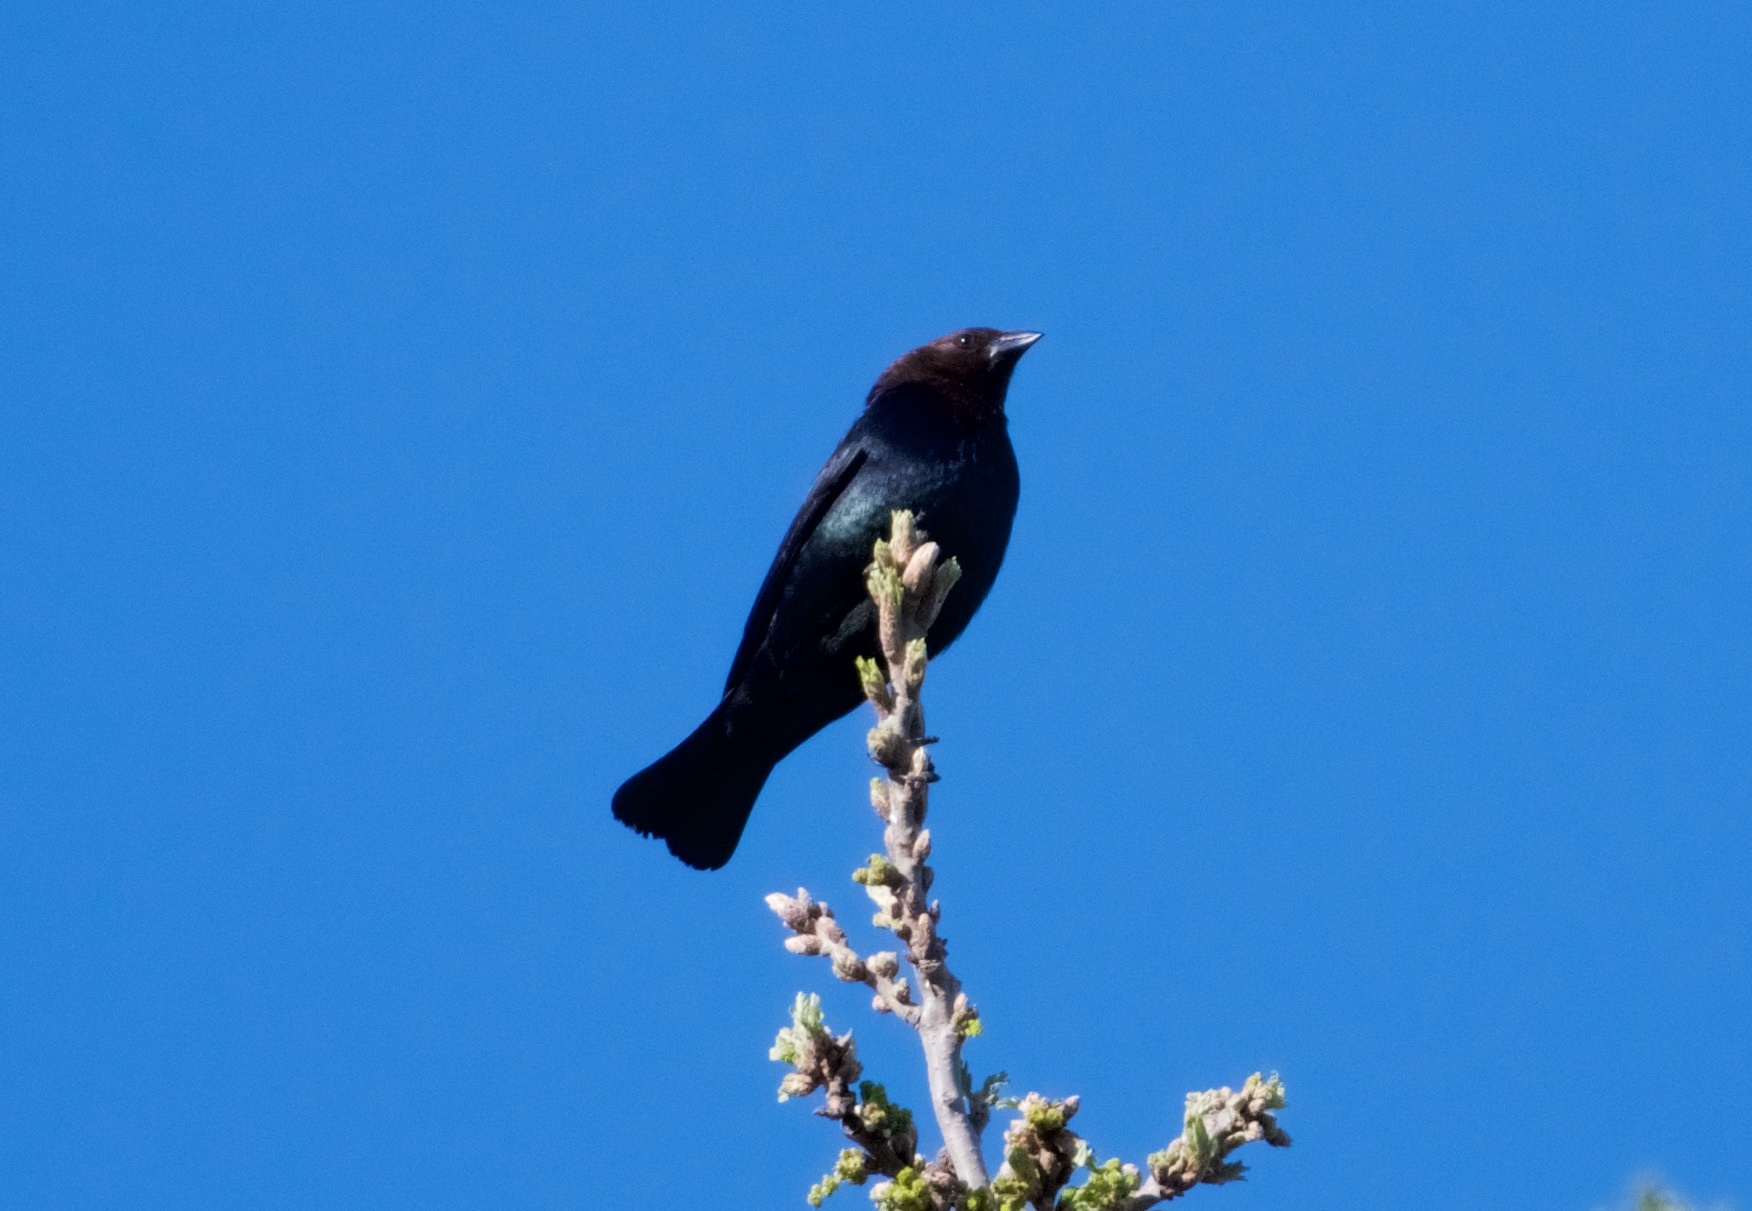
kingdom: Animalia
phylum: Chordata
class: Aves
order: Passeriformes
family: Icteridae
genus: Molothrus
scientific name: Molothrus ater
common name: Brown-headed cowbird
